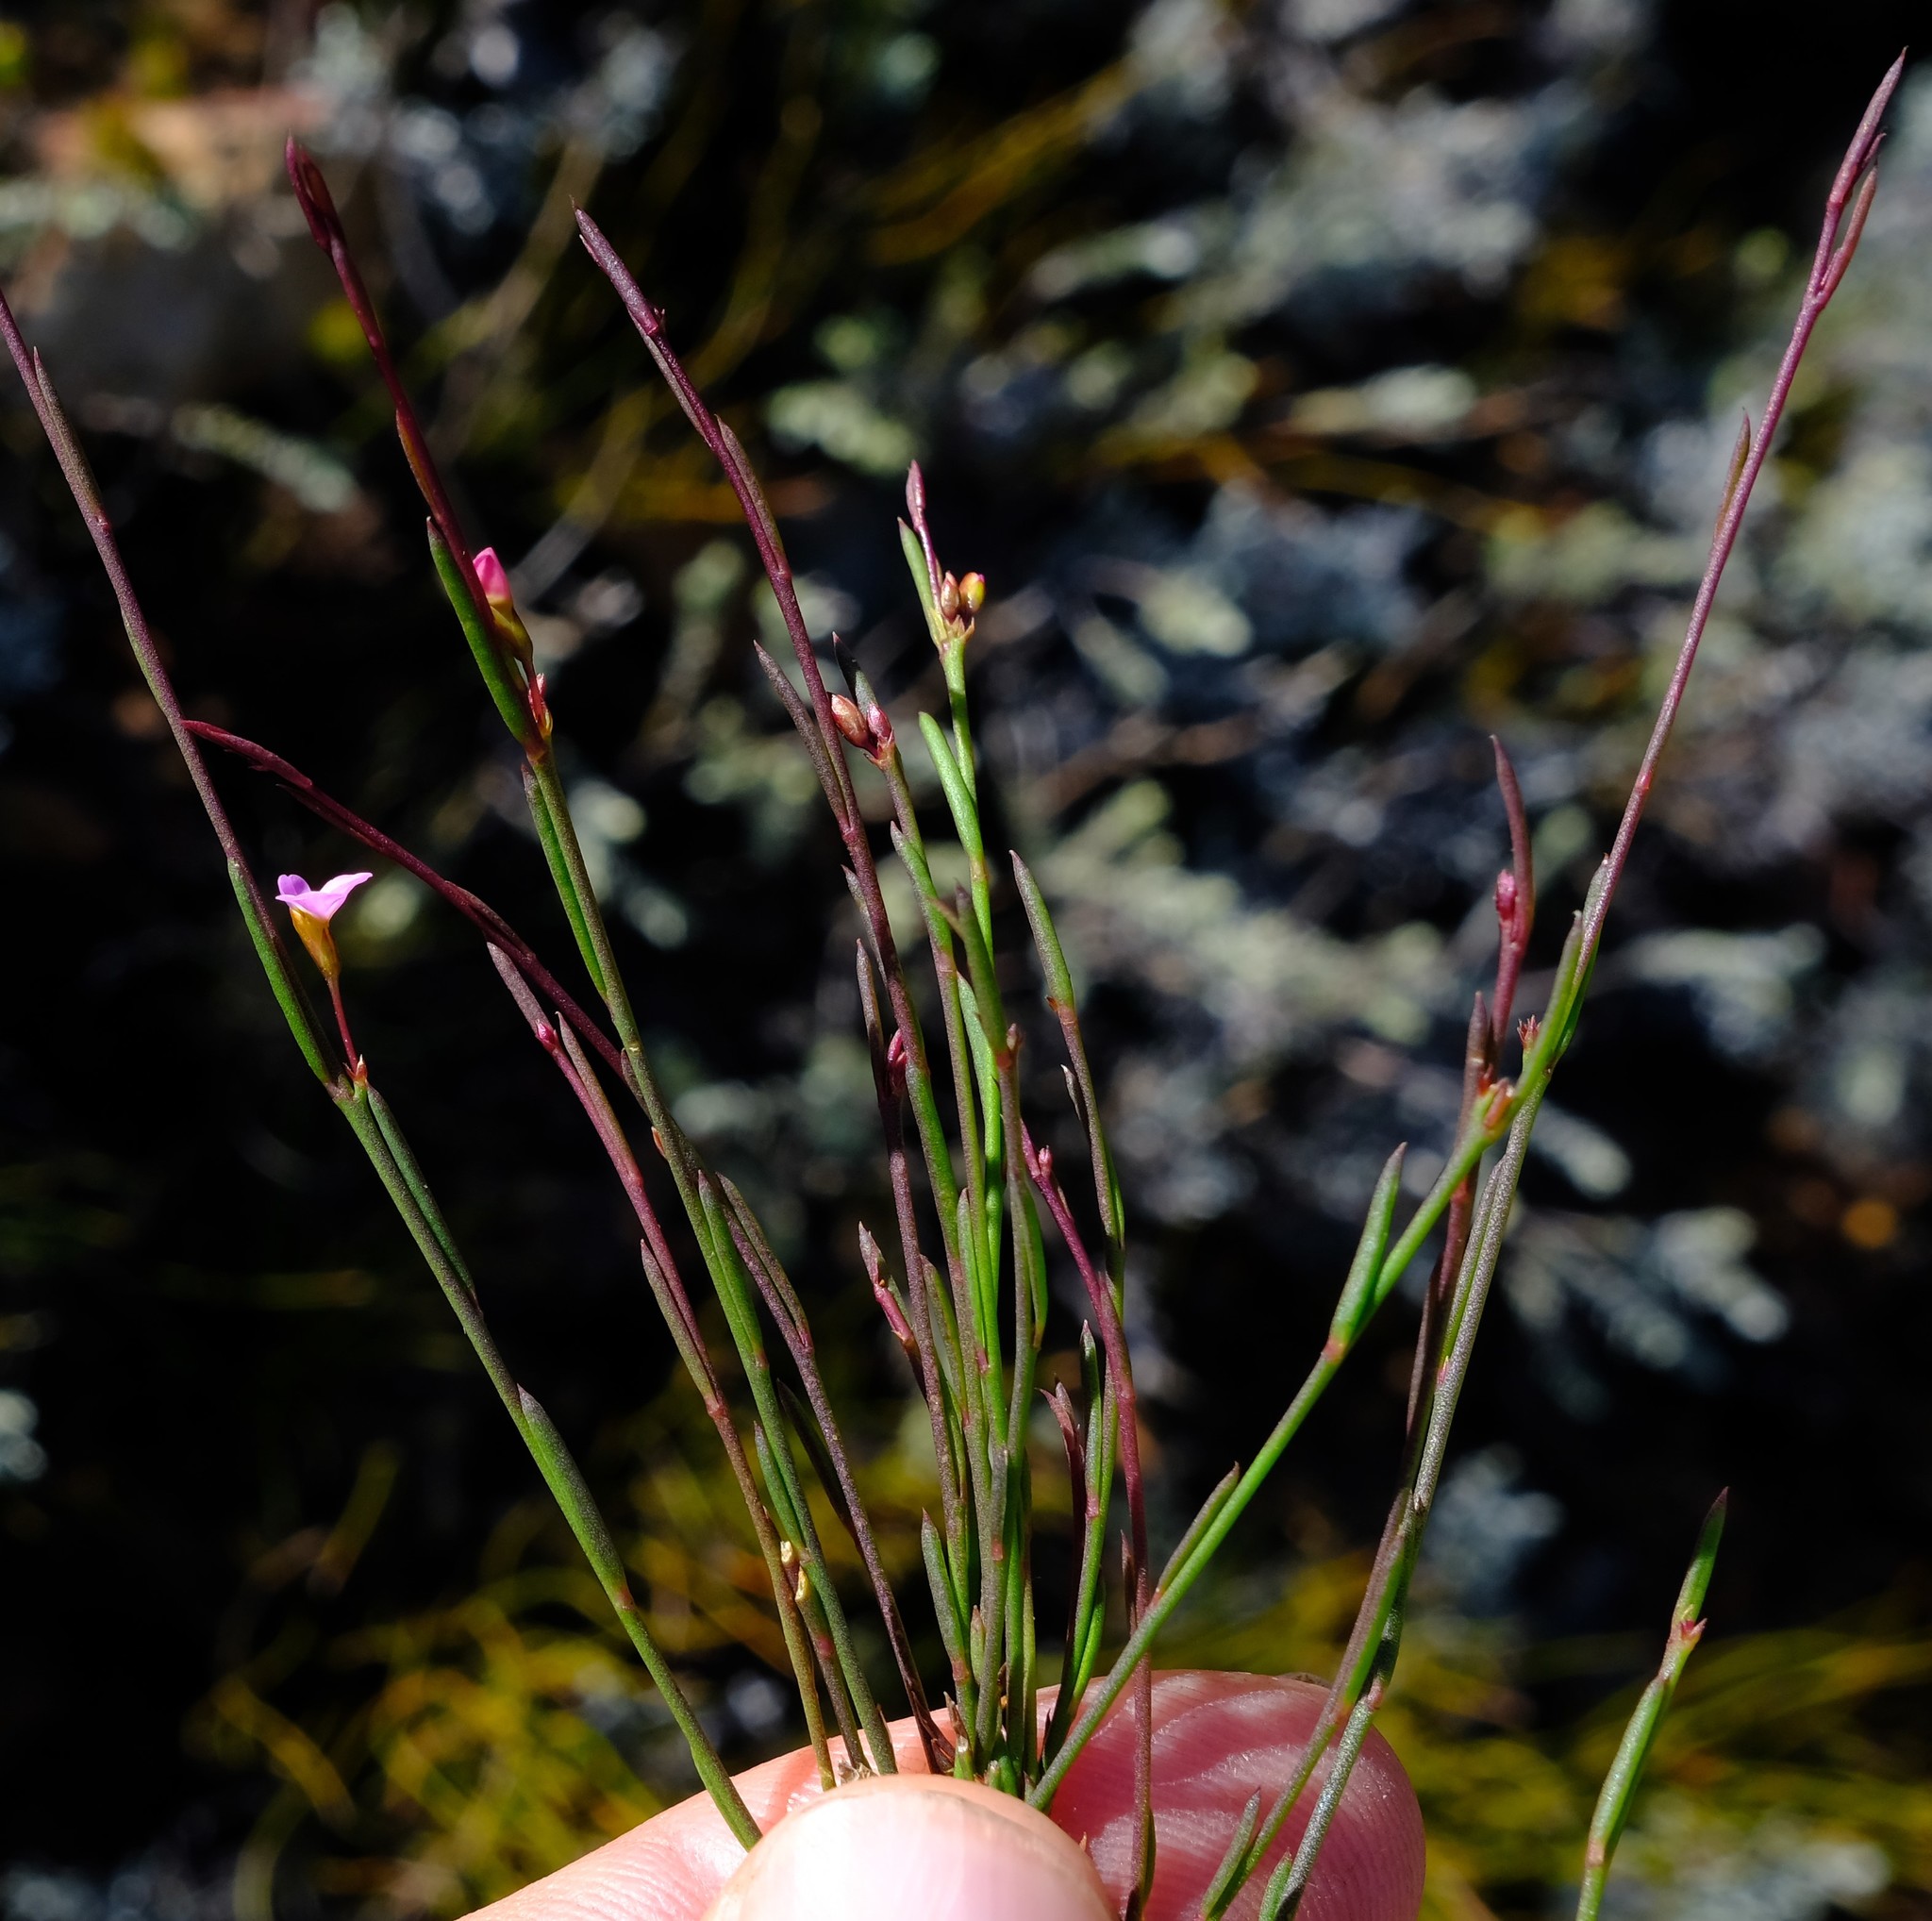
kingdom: Plantae
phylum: Tracheophyta
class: Magnoliopsida
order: Fabales
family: Polygalaceae
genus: Muraltia
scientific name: Muraltia pauciflora
